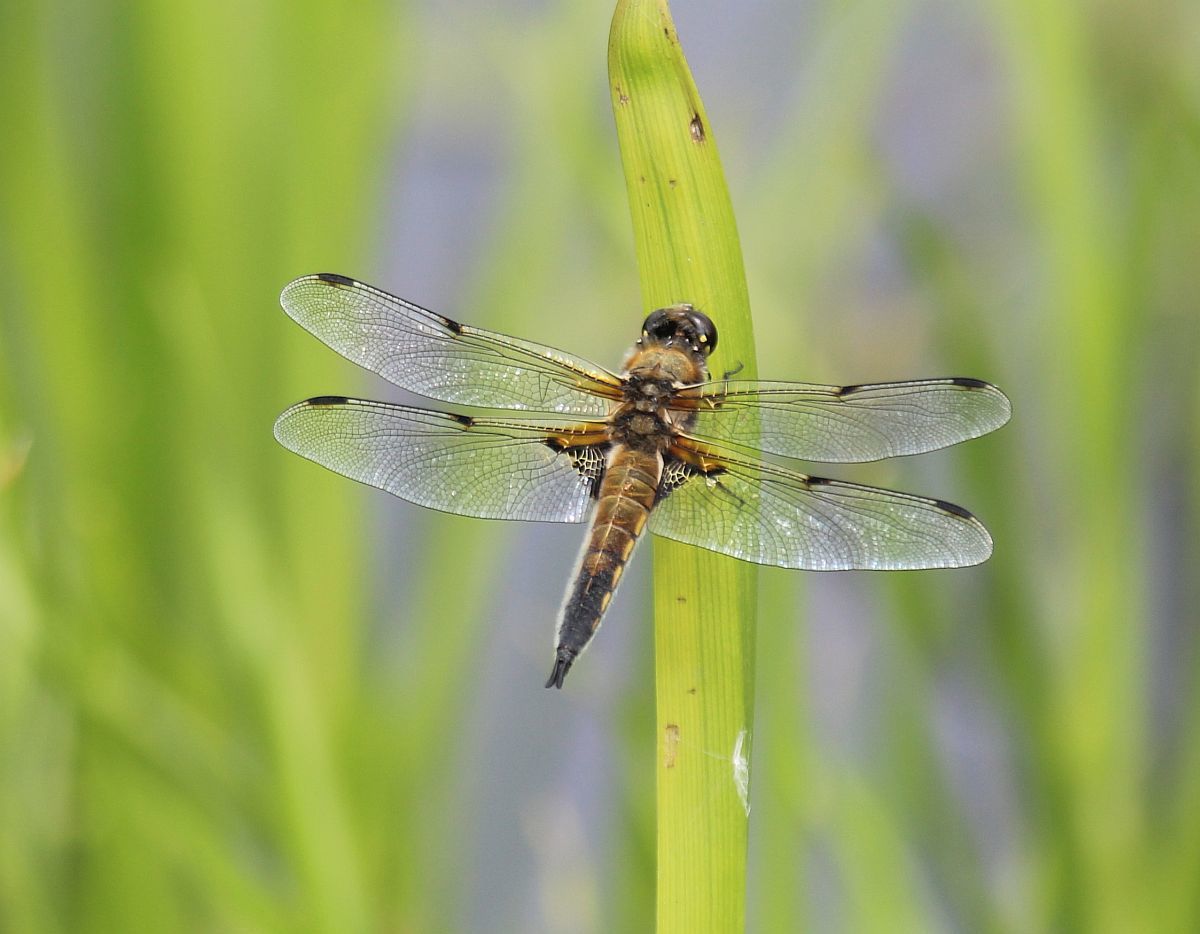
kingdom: Animalia
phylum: Arthropoda
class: Insecta
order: Odonata
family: Libellulidae
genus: Libellula
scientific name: Libellula quadrimaculata
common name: Four-spotted chaser
